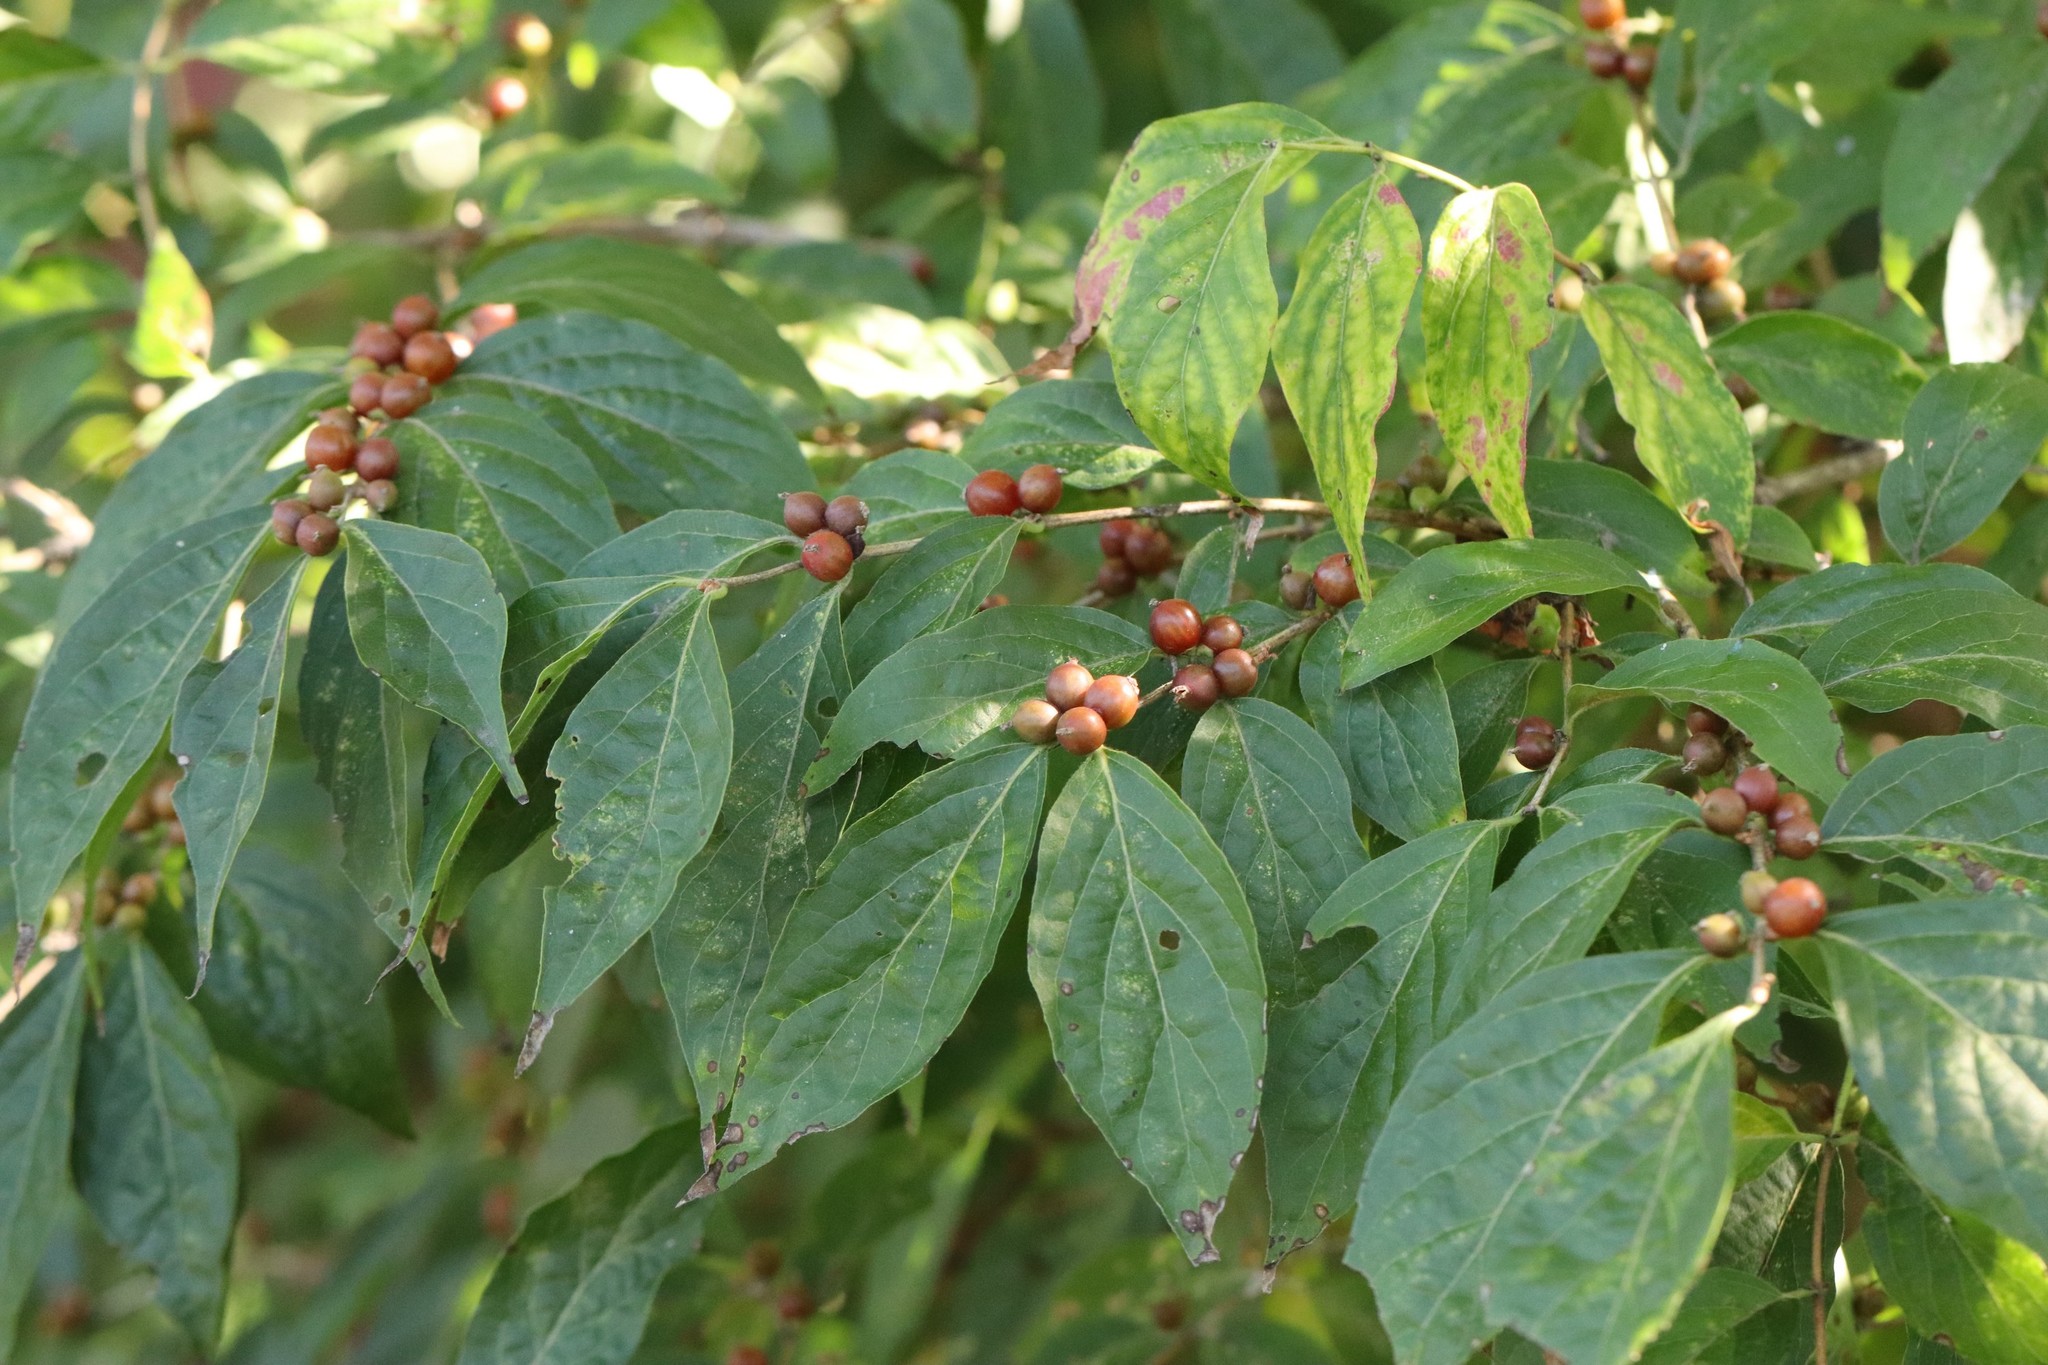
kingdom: Plantae
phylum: Tracheophyta
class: Magnoliopsida
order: Dipsacales
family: Caprifoliaceae
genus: Lonicera
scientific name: Lonicera maackii
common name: Amur honeysuckle
